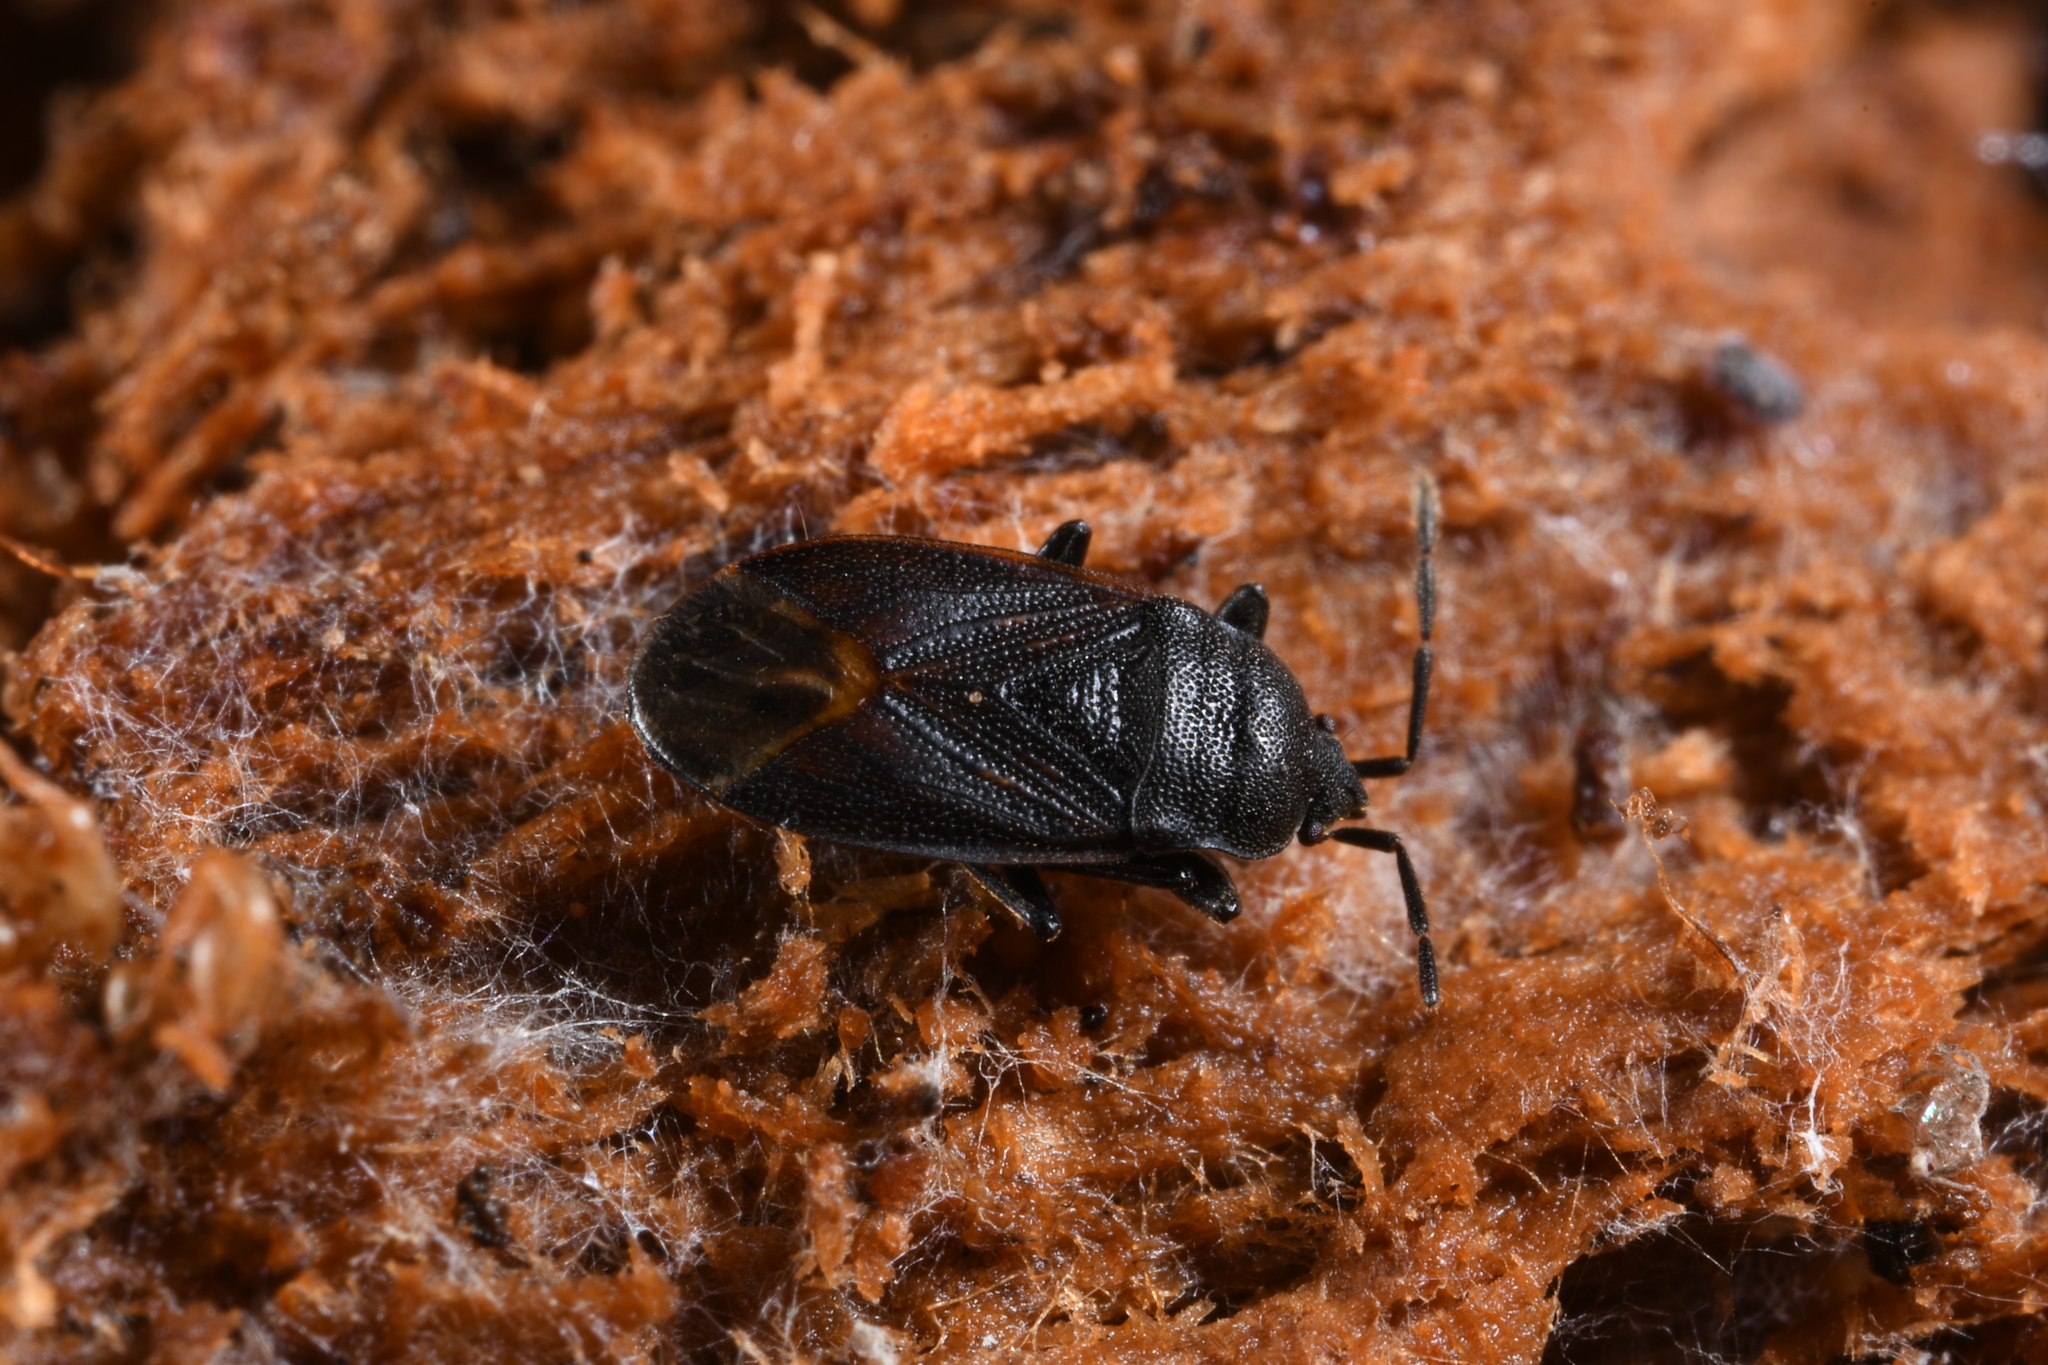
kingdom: Animalia
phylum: Arthropoda
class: Insecta
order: Hemiptera
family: Rhyparochromidae
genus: Drymus
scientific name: Drymus ryeii
